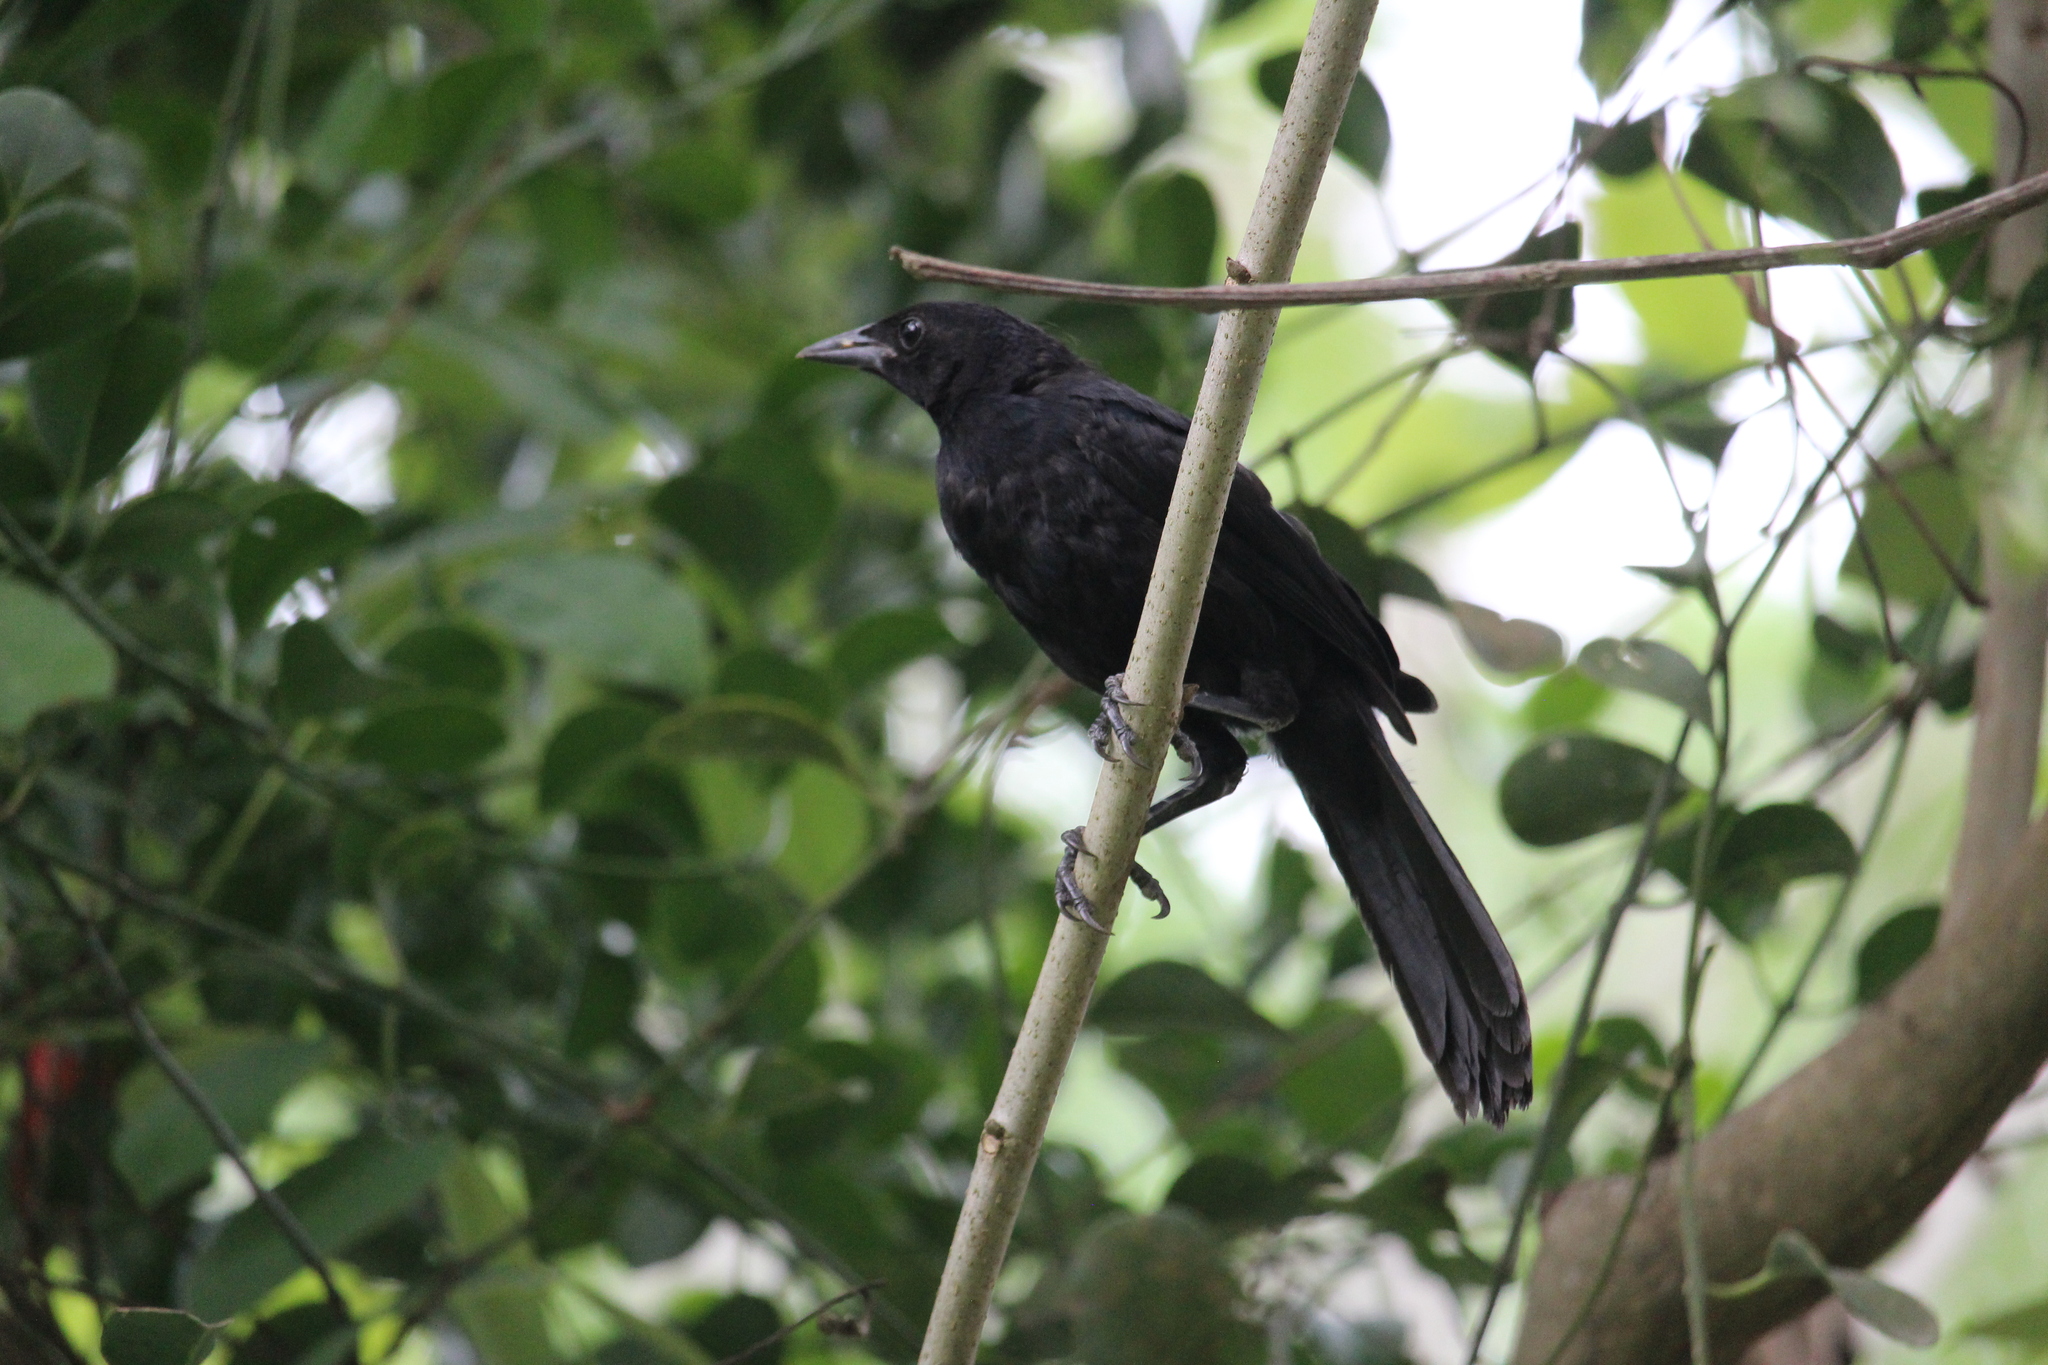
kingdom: Animalia
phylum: Chordata
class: Aves
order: Passeriformes
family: Icteridae
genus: Dives
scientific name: Dives dives
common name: Melodious blackbird
